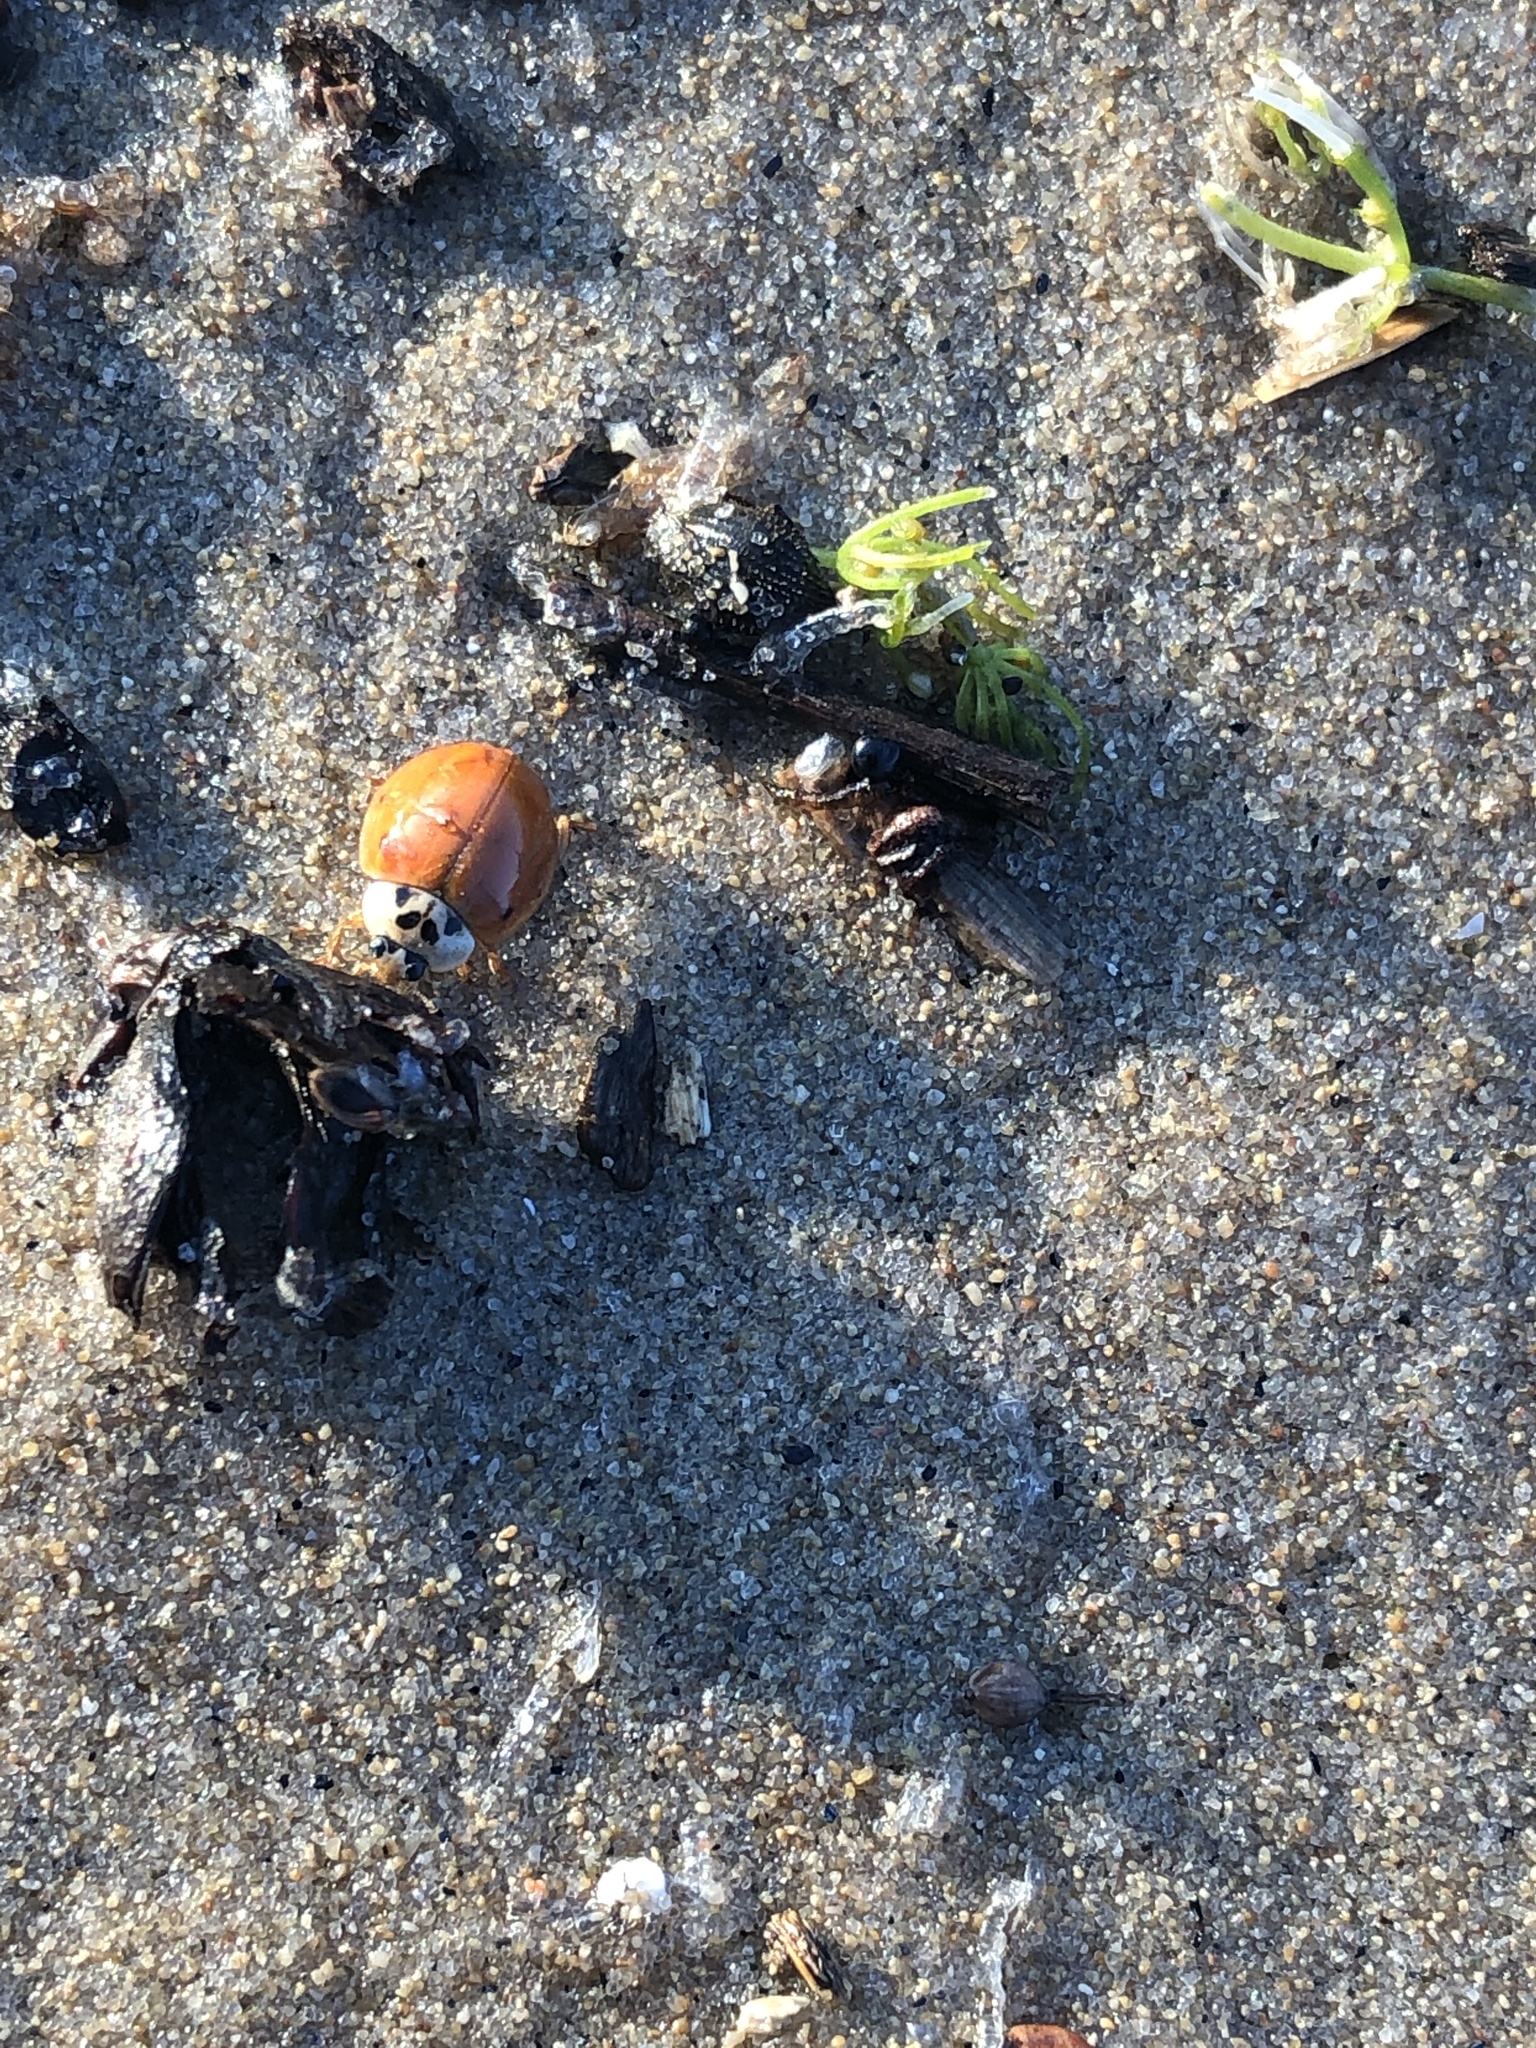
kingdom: Animalia
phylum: Arthropoda
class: Insecta
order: Coleoptera
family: Coccinellidae
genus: Cycloneda
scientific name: Cycloneda munda
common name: Polished lady beetle
